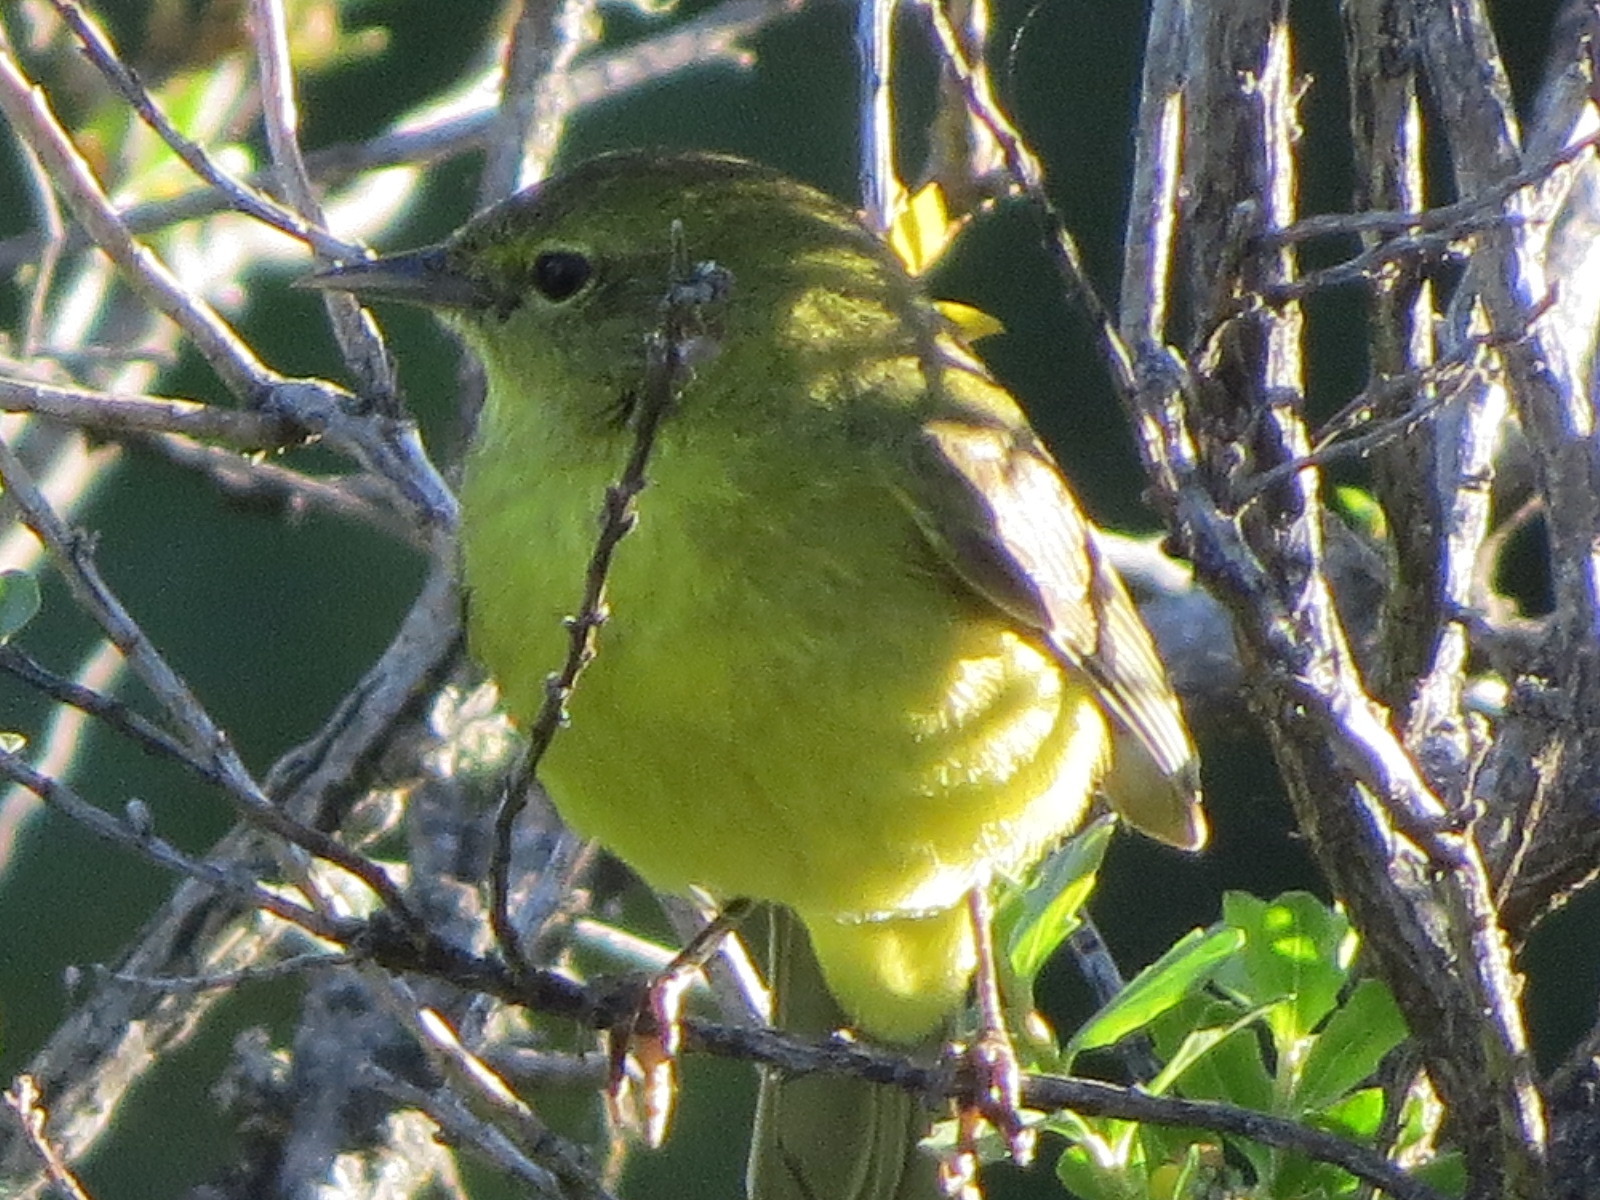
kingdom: Animalia
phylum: Chordata
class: Aves
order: Passeriformes
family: Parulidae
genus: Leiothlypis
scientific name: Leiothlypis celata
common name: Orange-crowned warbler
